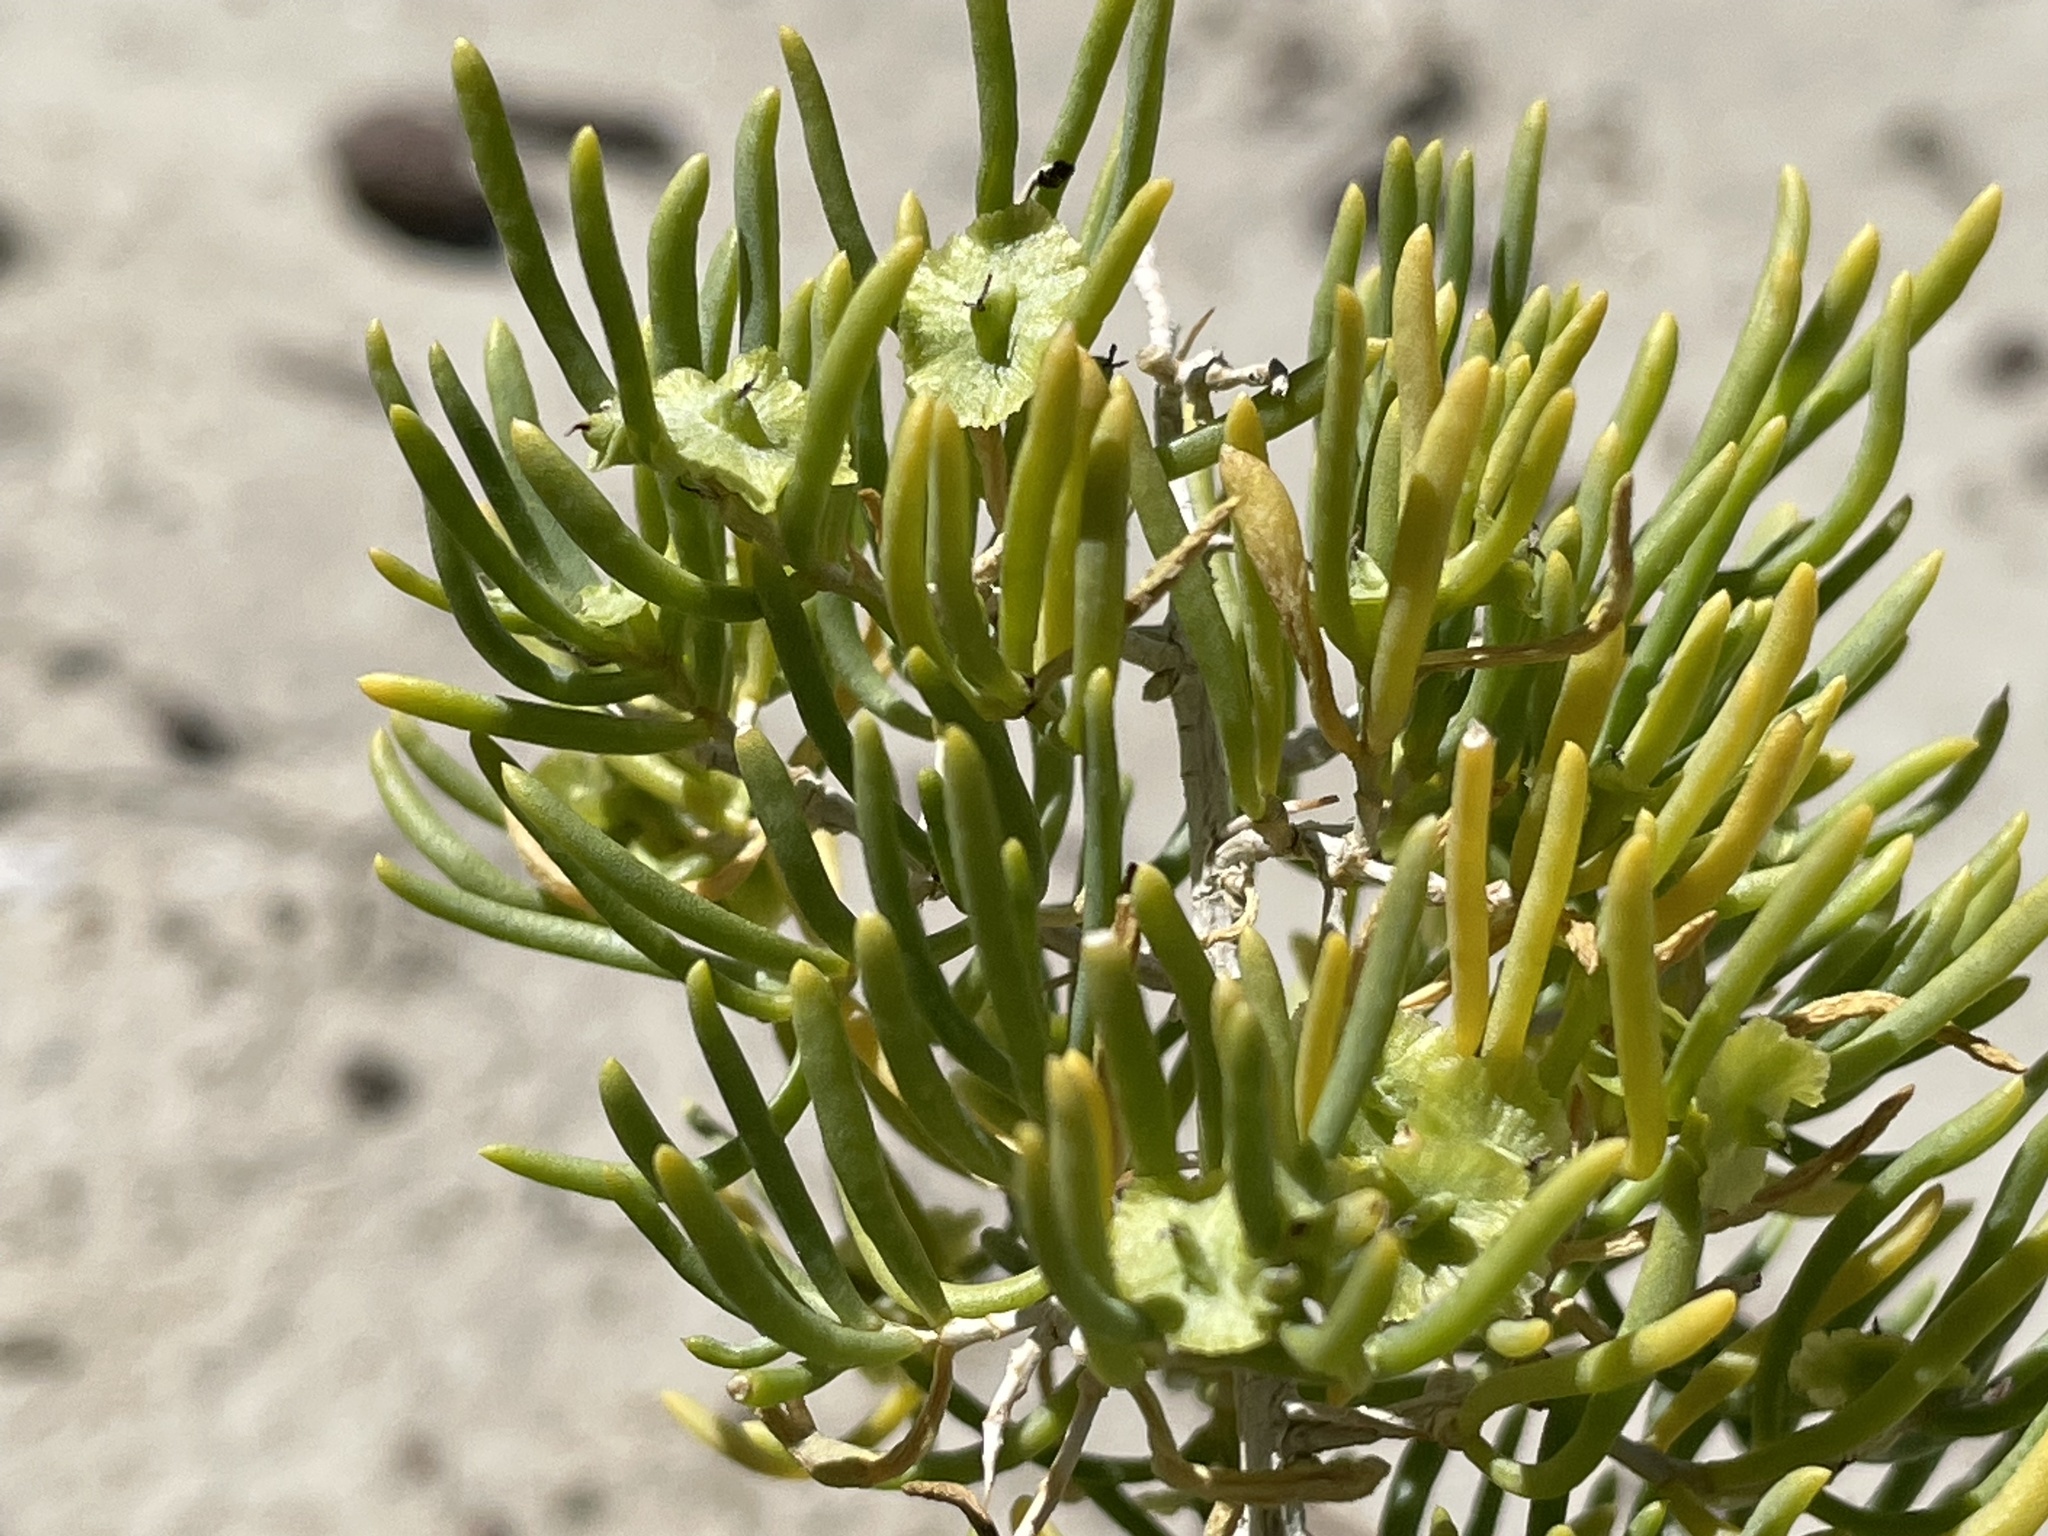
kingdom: Plantae
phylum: Tracheophyta
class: Magnoliopsida
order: Caryophyllales
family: Sarcobataceae
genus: Sarcobatus
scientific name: Sarcobatus vermiculatus
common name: Greasewood
